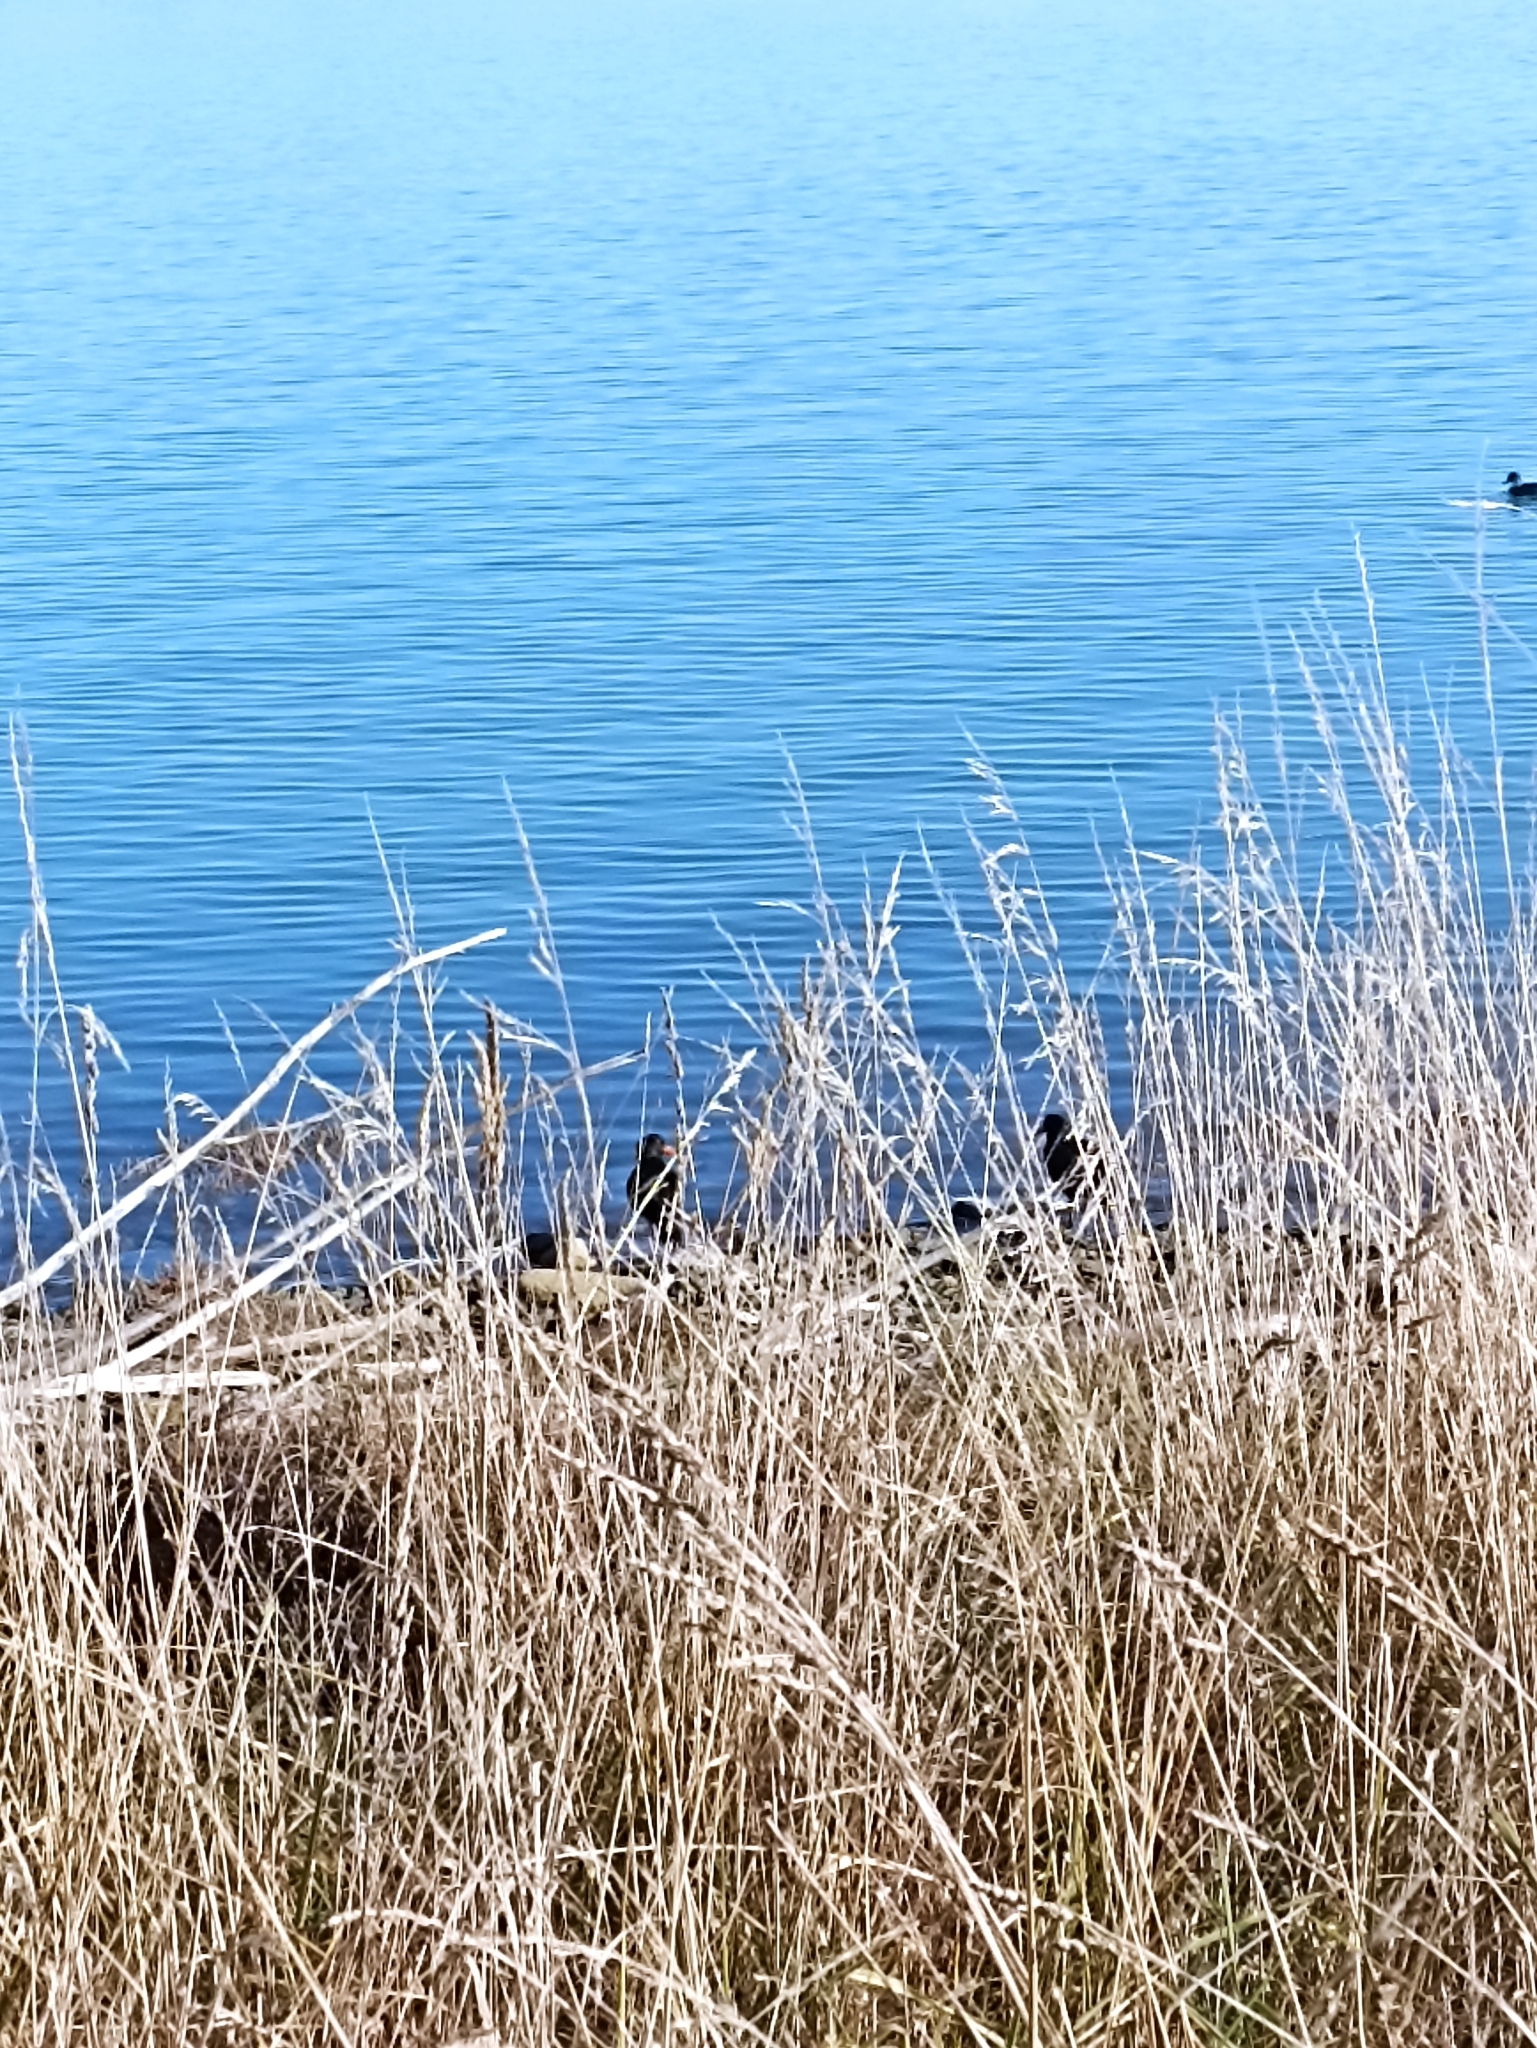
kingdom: Animalia
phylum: Chordata
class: Aves
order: Charadriiformes
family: Haematopodidae
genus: Haematopus
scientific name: Haematopus unicolor
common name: Variable oystercatcher
